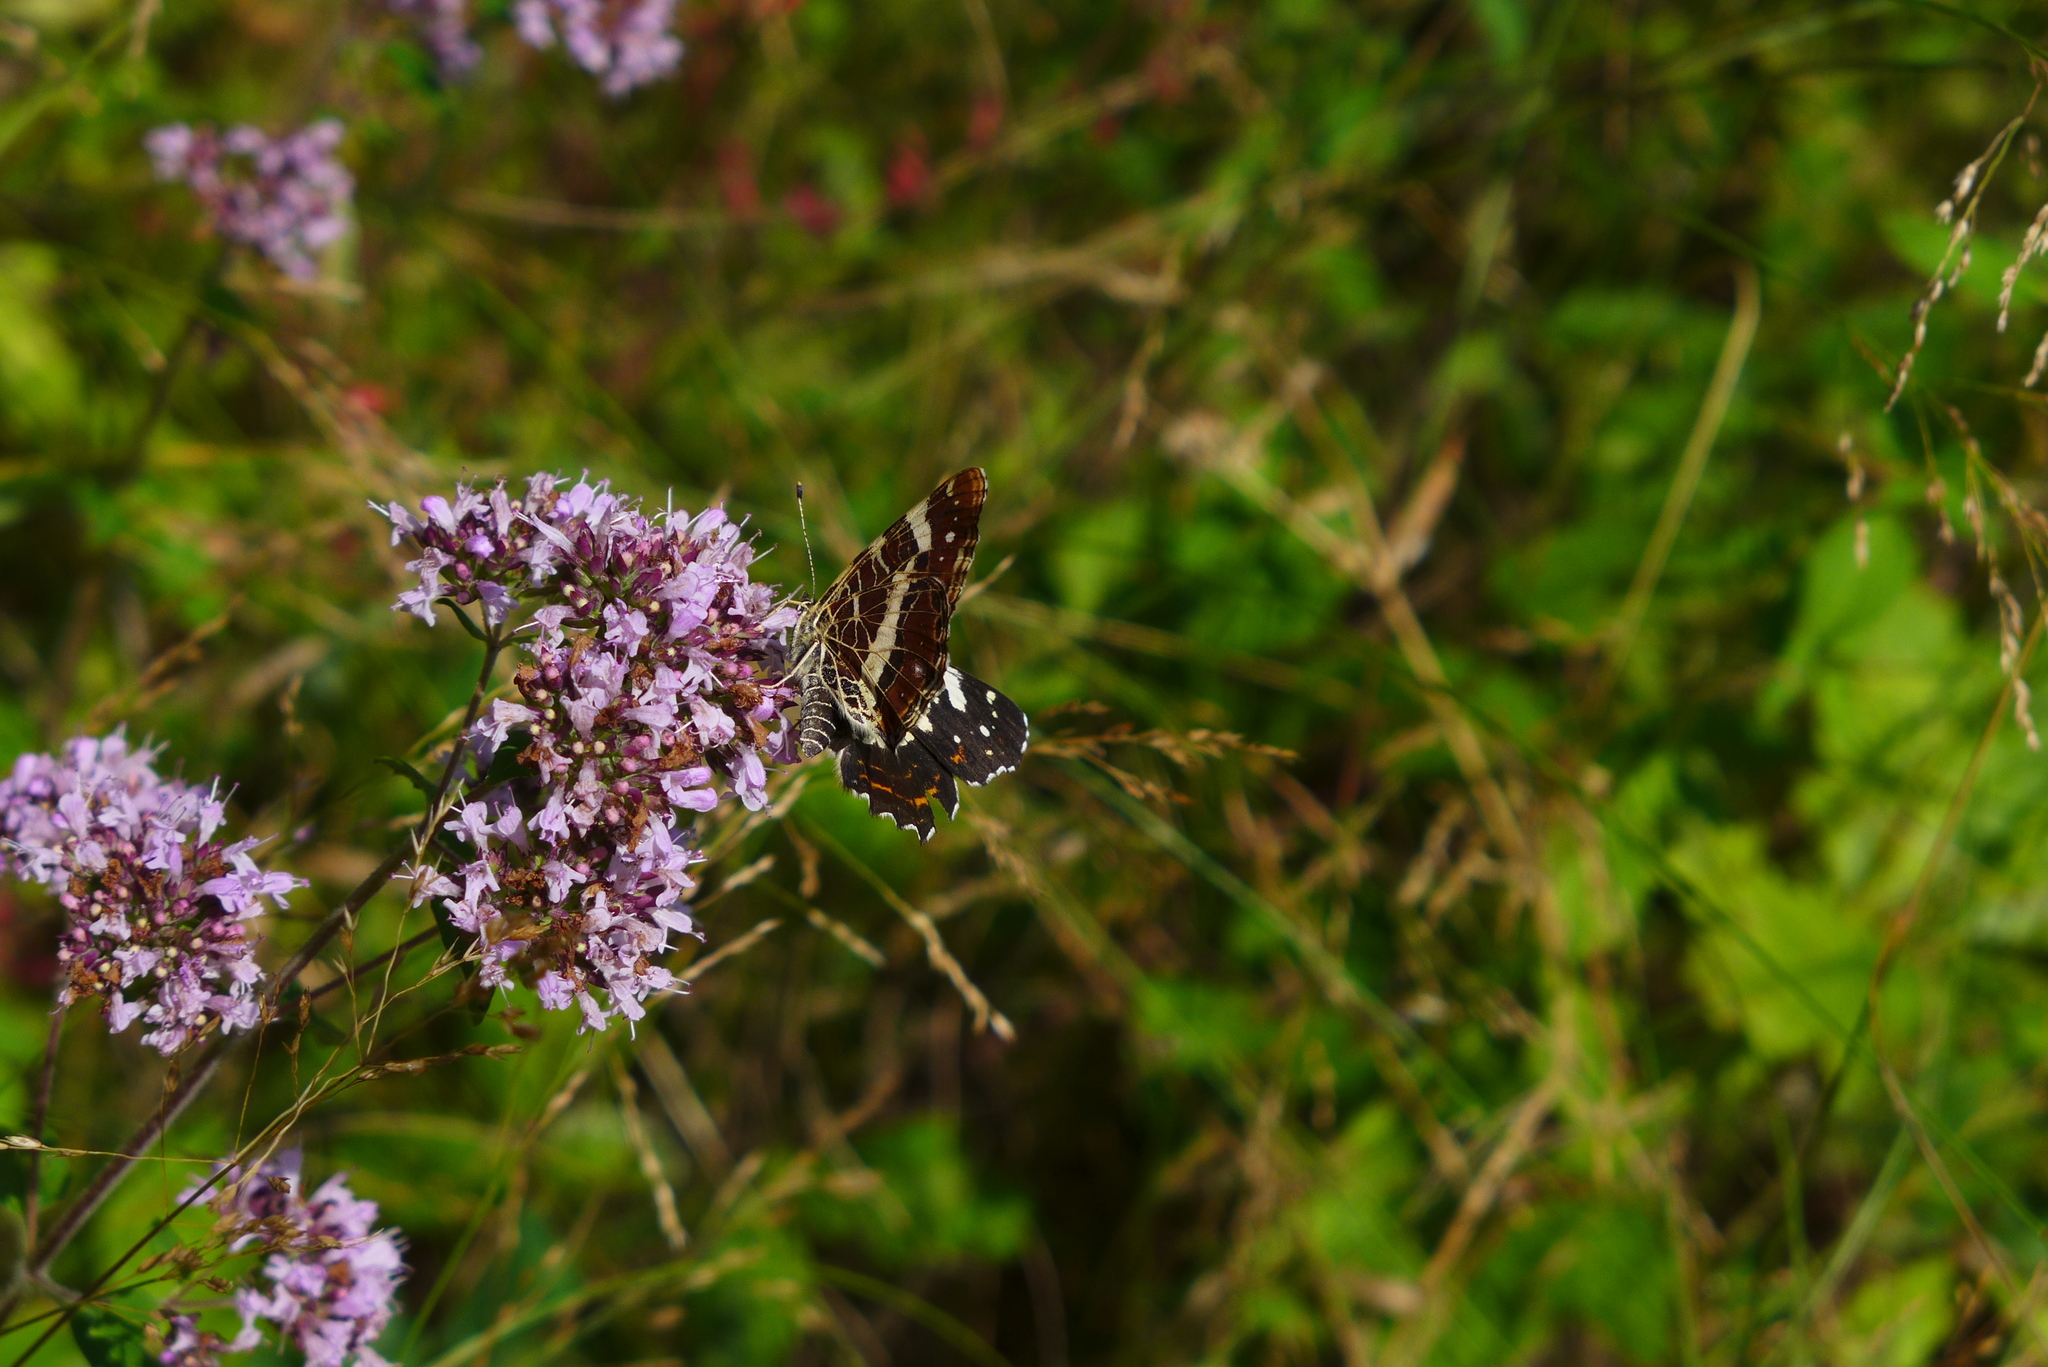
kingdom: Animalia
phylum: Arthropoda
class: Insecta
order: Lepidoptera
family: Nymphalidae
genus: Araschnia
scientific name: Araschnia levana
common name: Map butterfly
